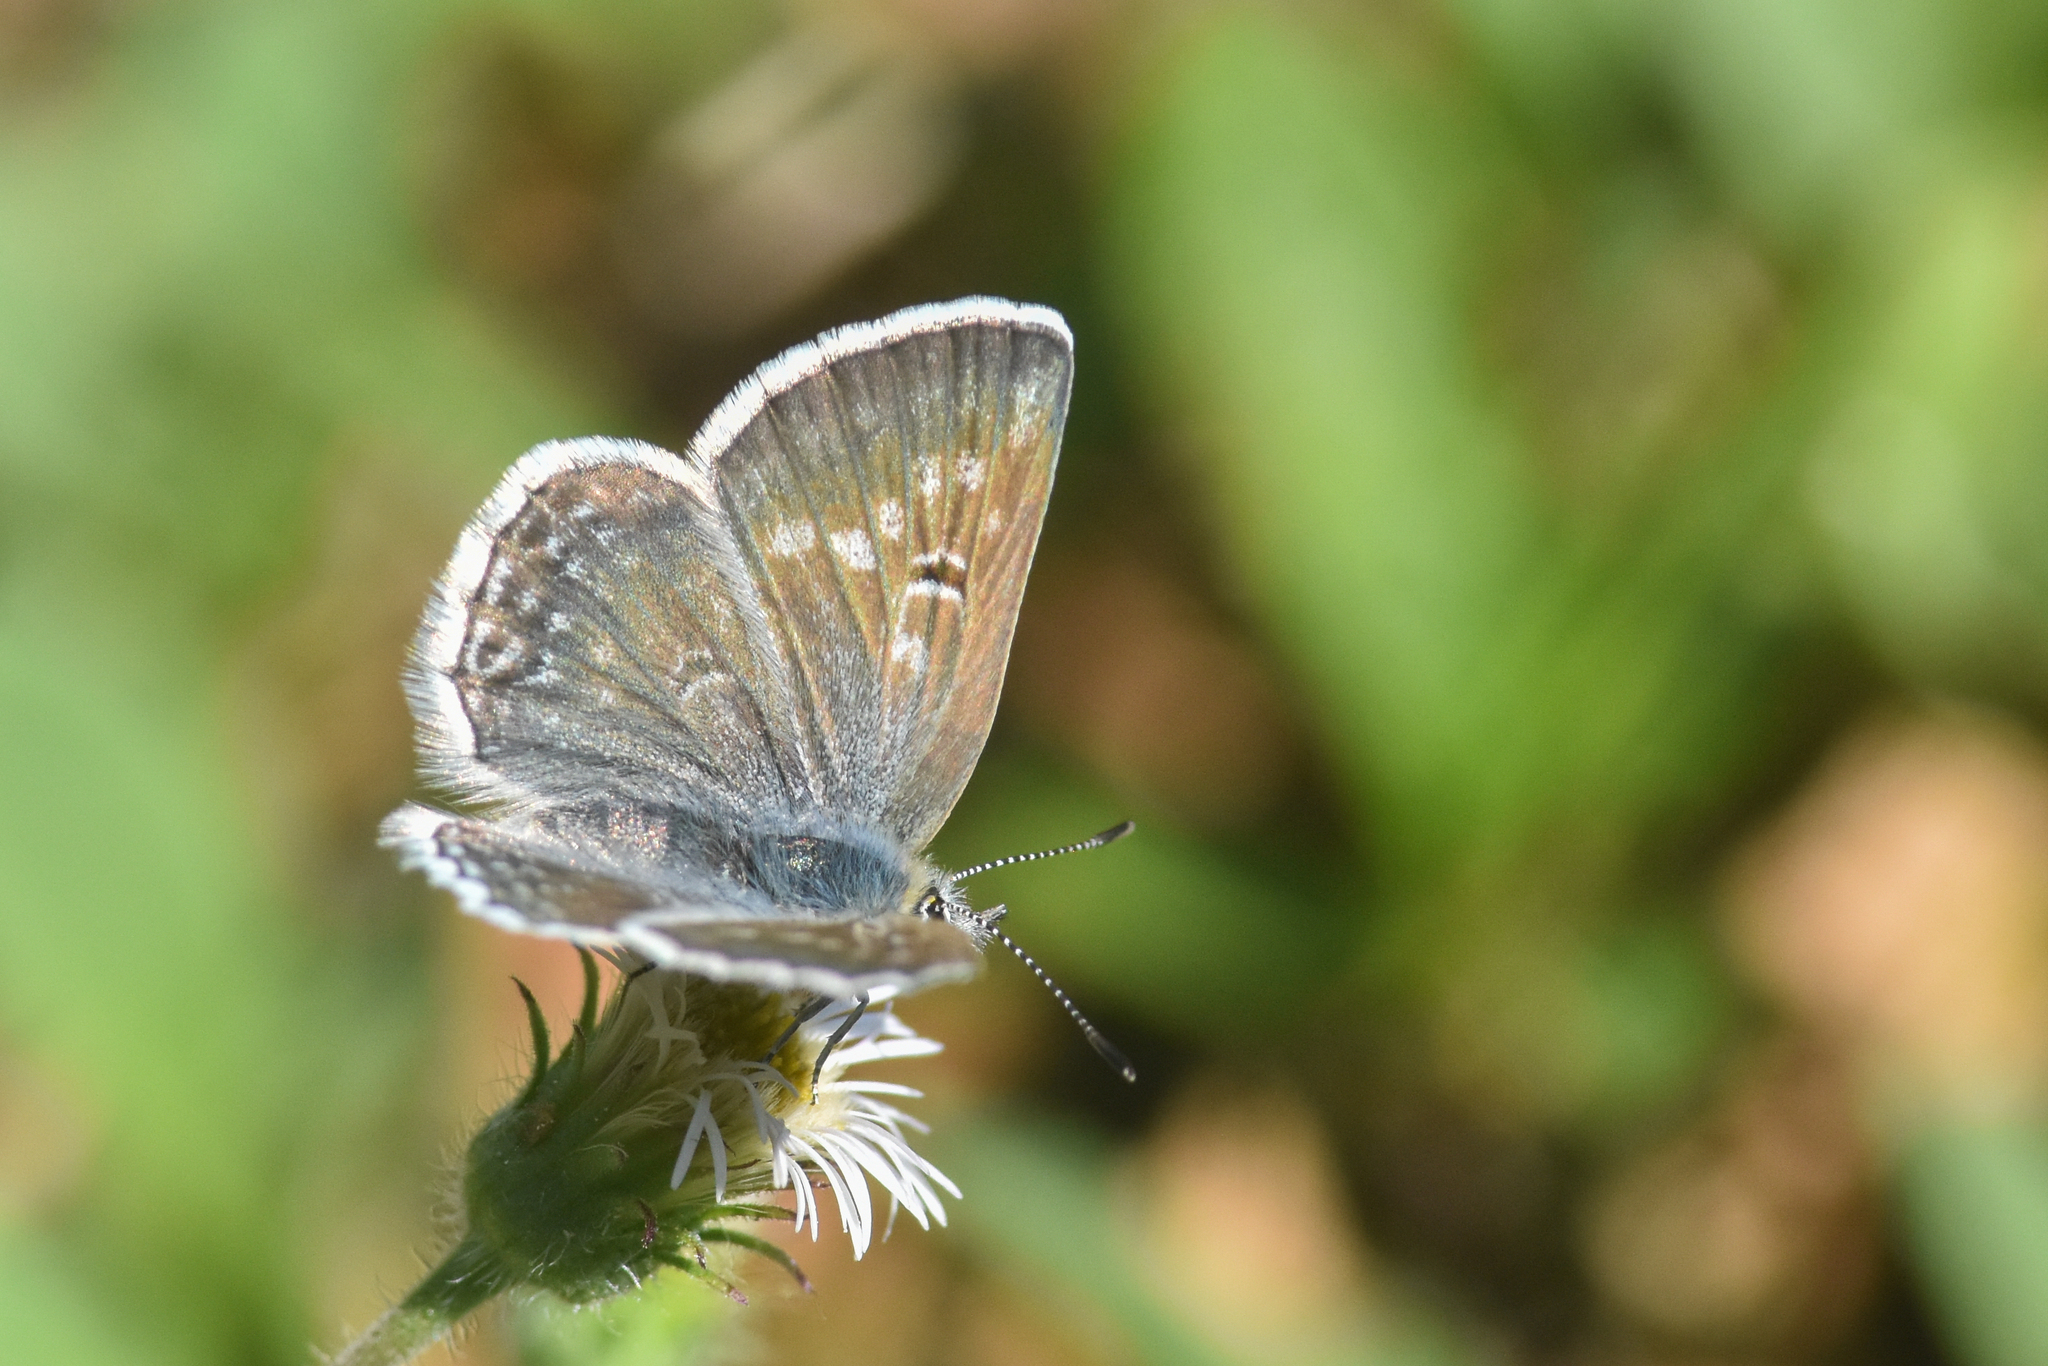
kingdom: Animalia
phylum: Arthropoda
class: Insecta
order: Lepidoptera
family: Lycaenidae
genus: Agriades
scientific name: Agriades glandon
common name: Glandon blue
